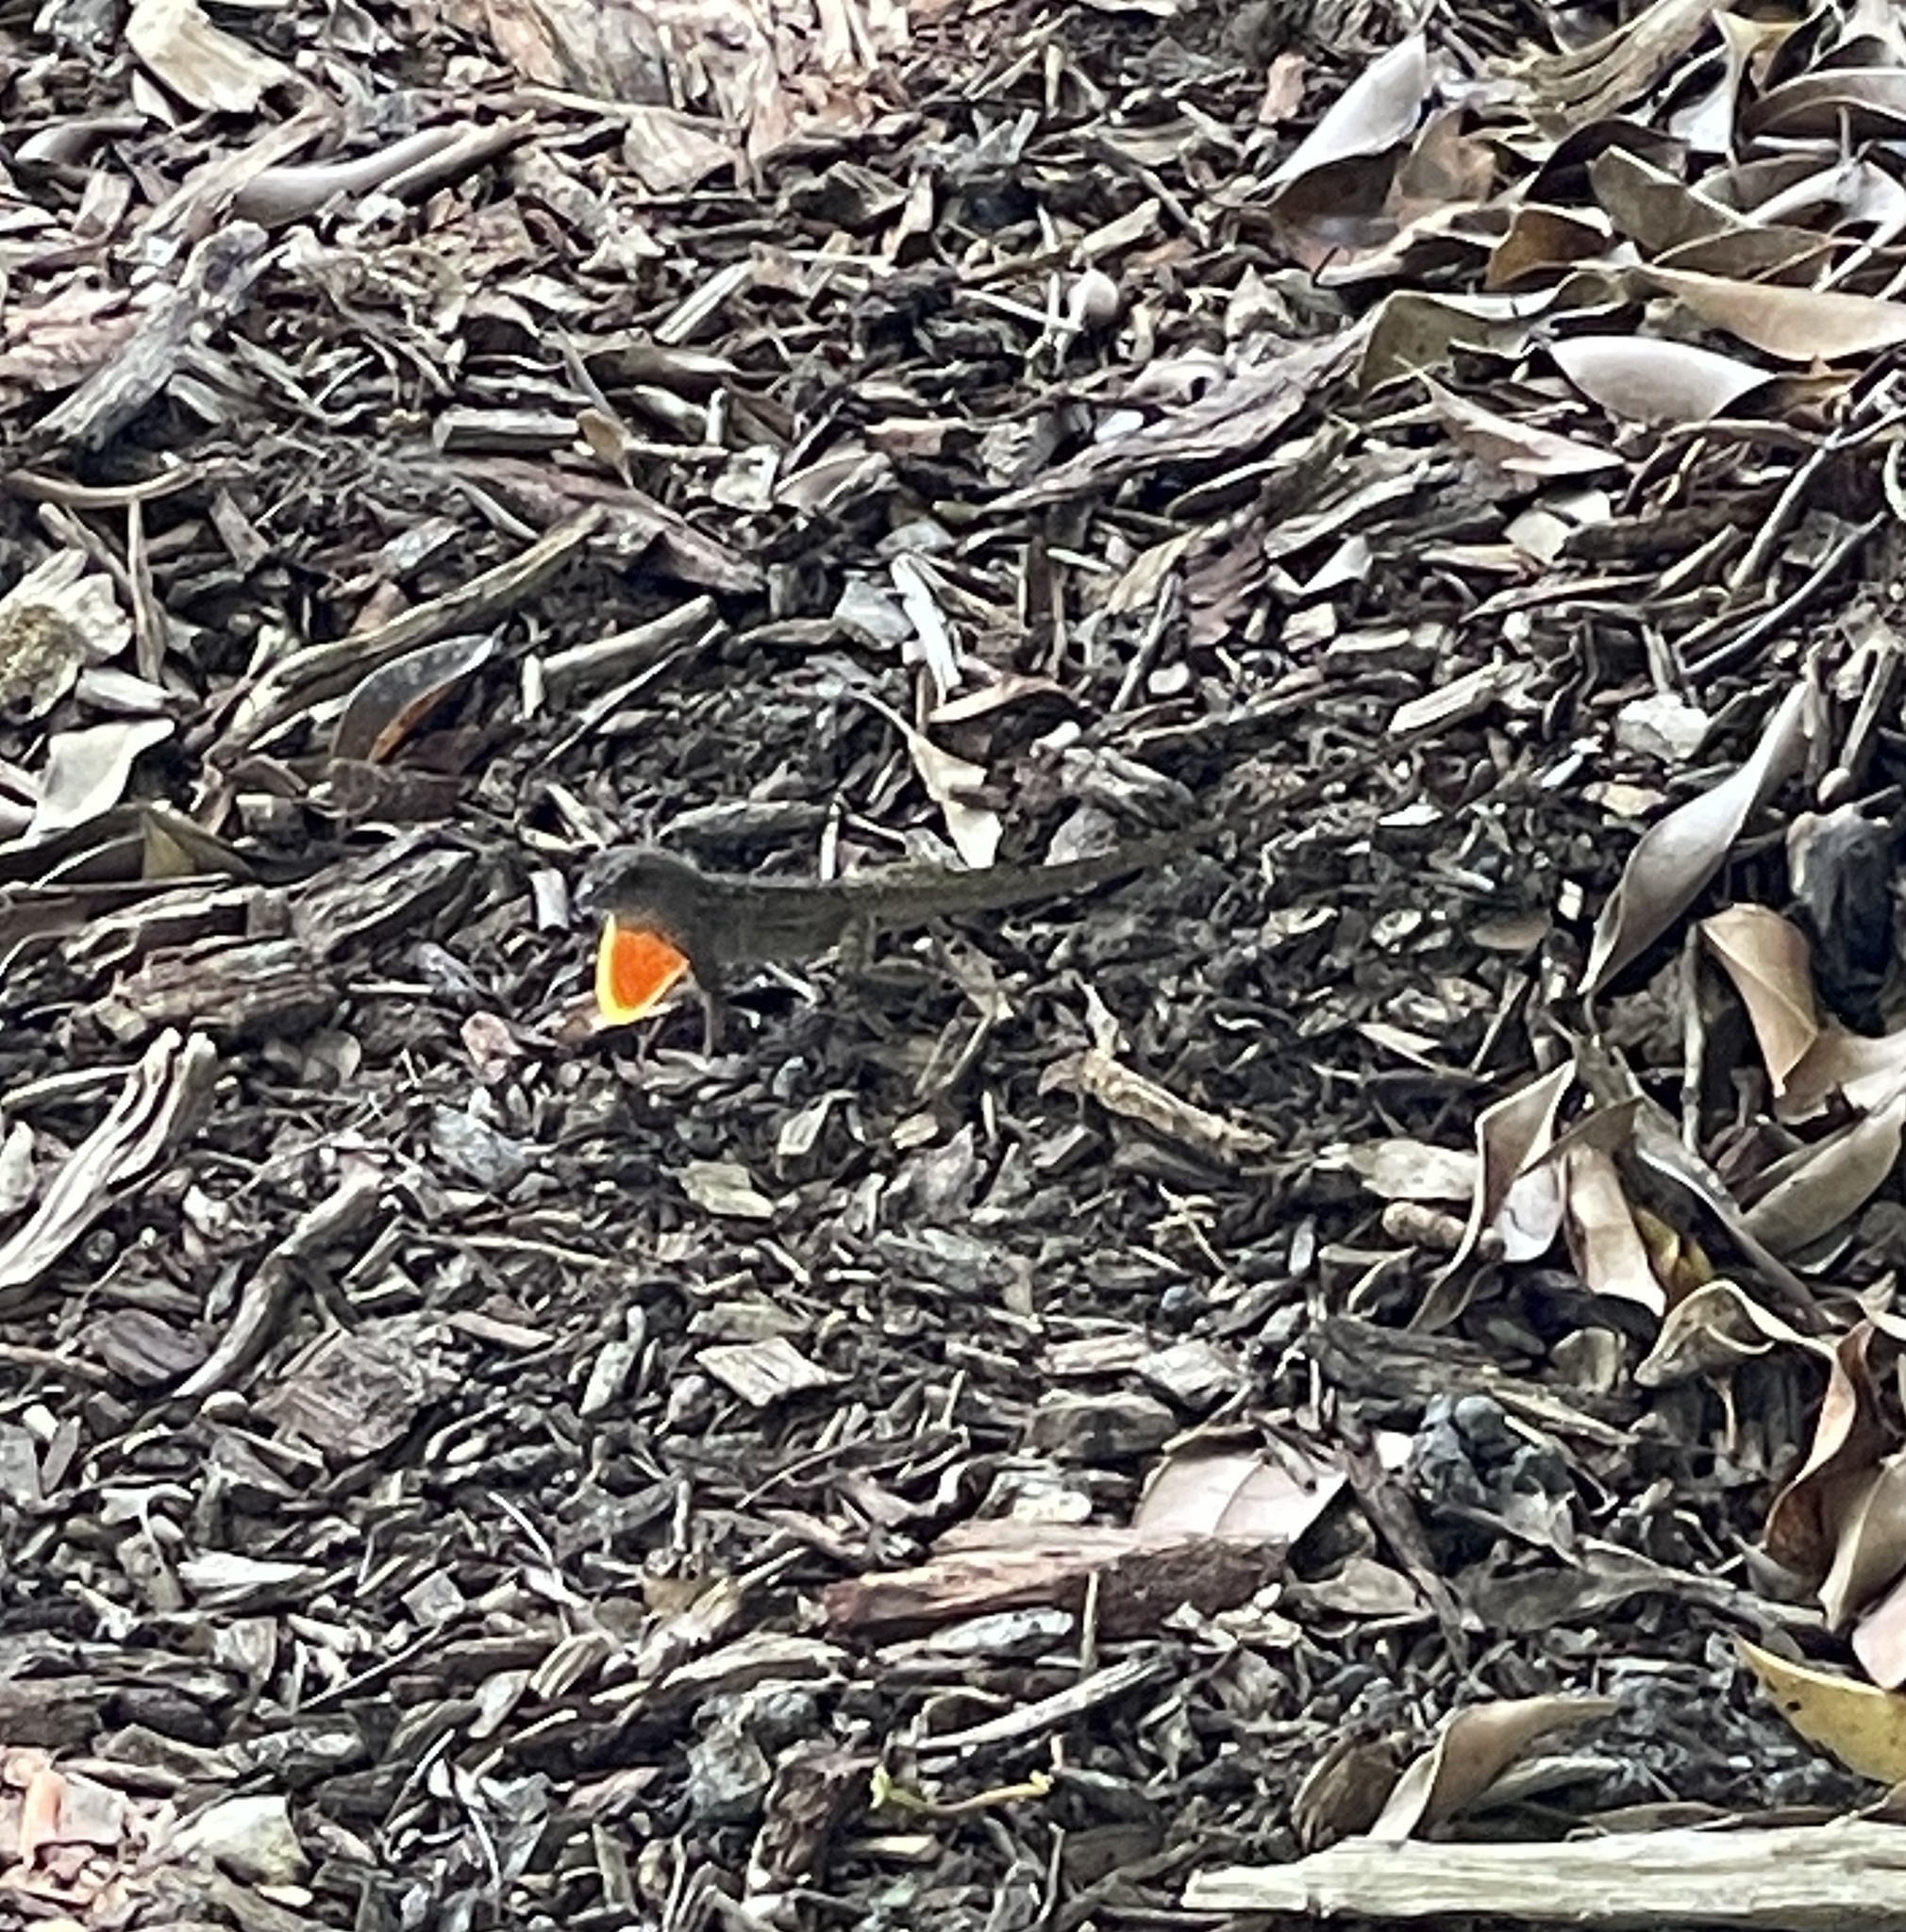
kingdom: Animalia
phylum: Chordata
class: Squamata
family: Dactyloidae
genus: Anolis
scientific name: Anolis sagrei
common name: Brown anole
